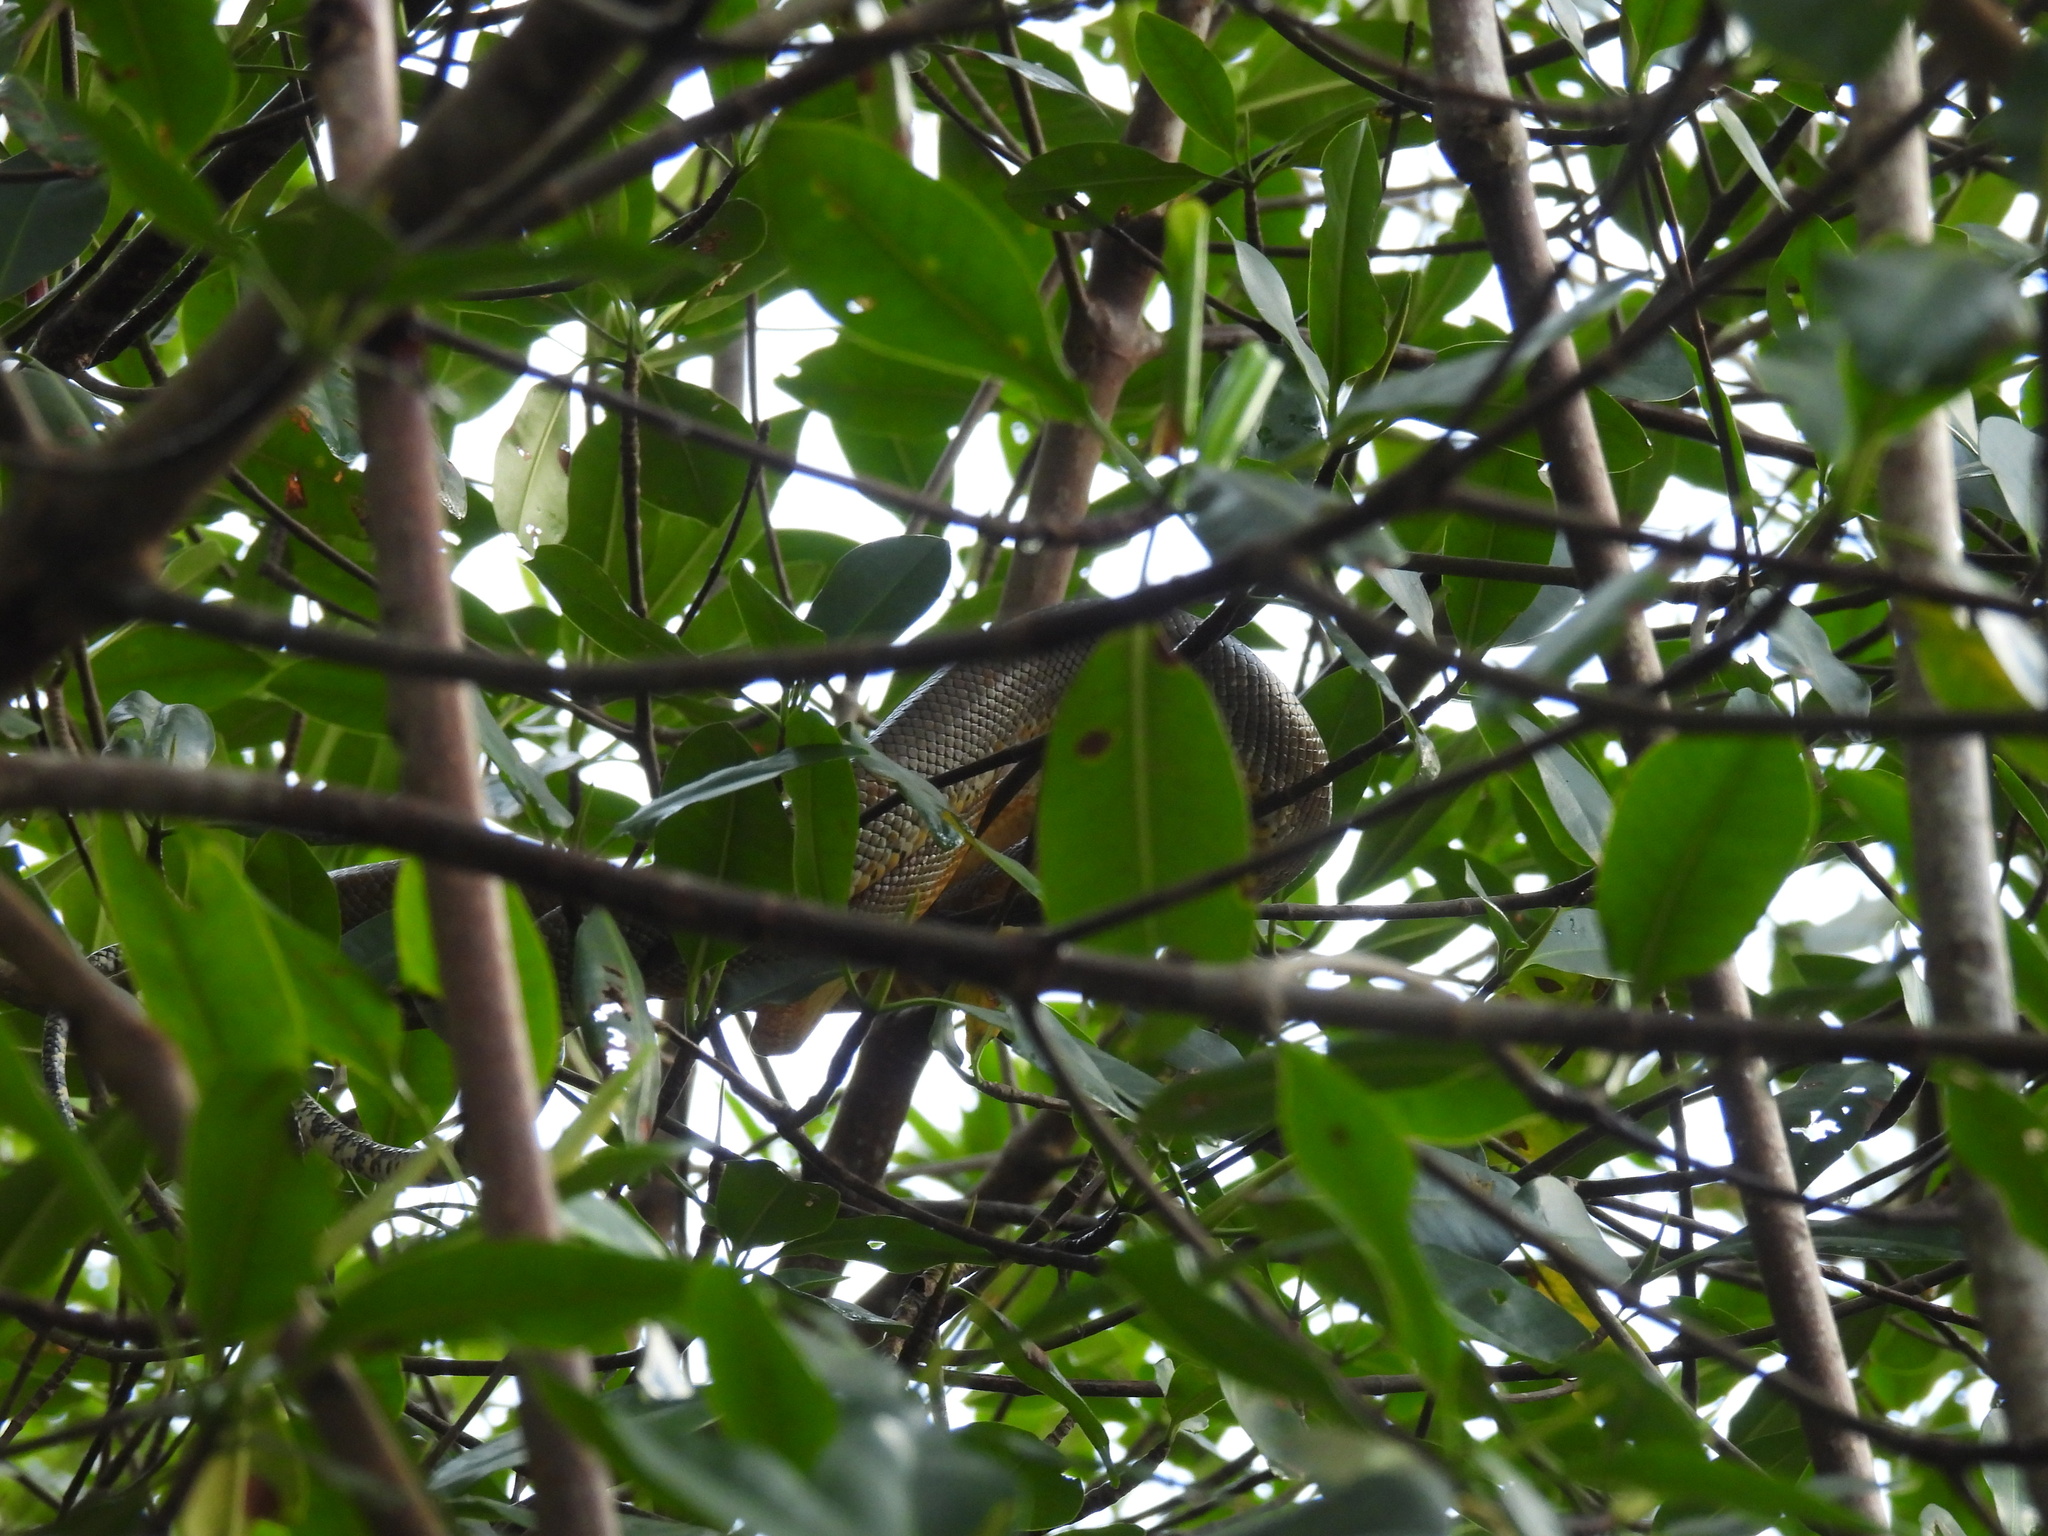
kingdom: Animalia
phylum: Chordata
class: Squamata
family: Boidae
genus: Corallus
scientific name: Corallus ruschenbergerii
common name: Dormilona
